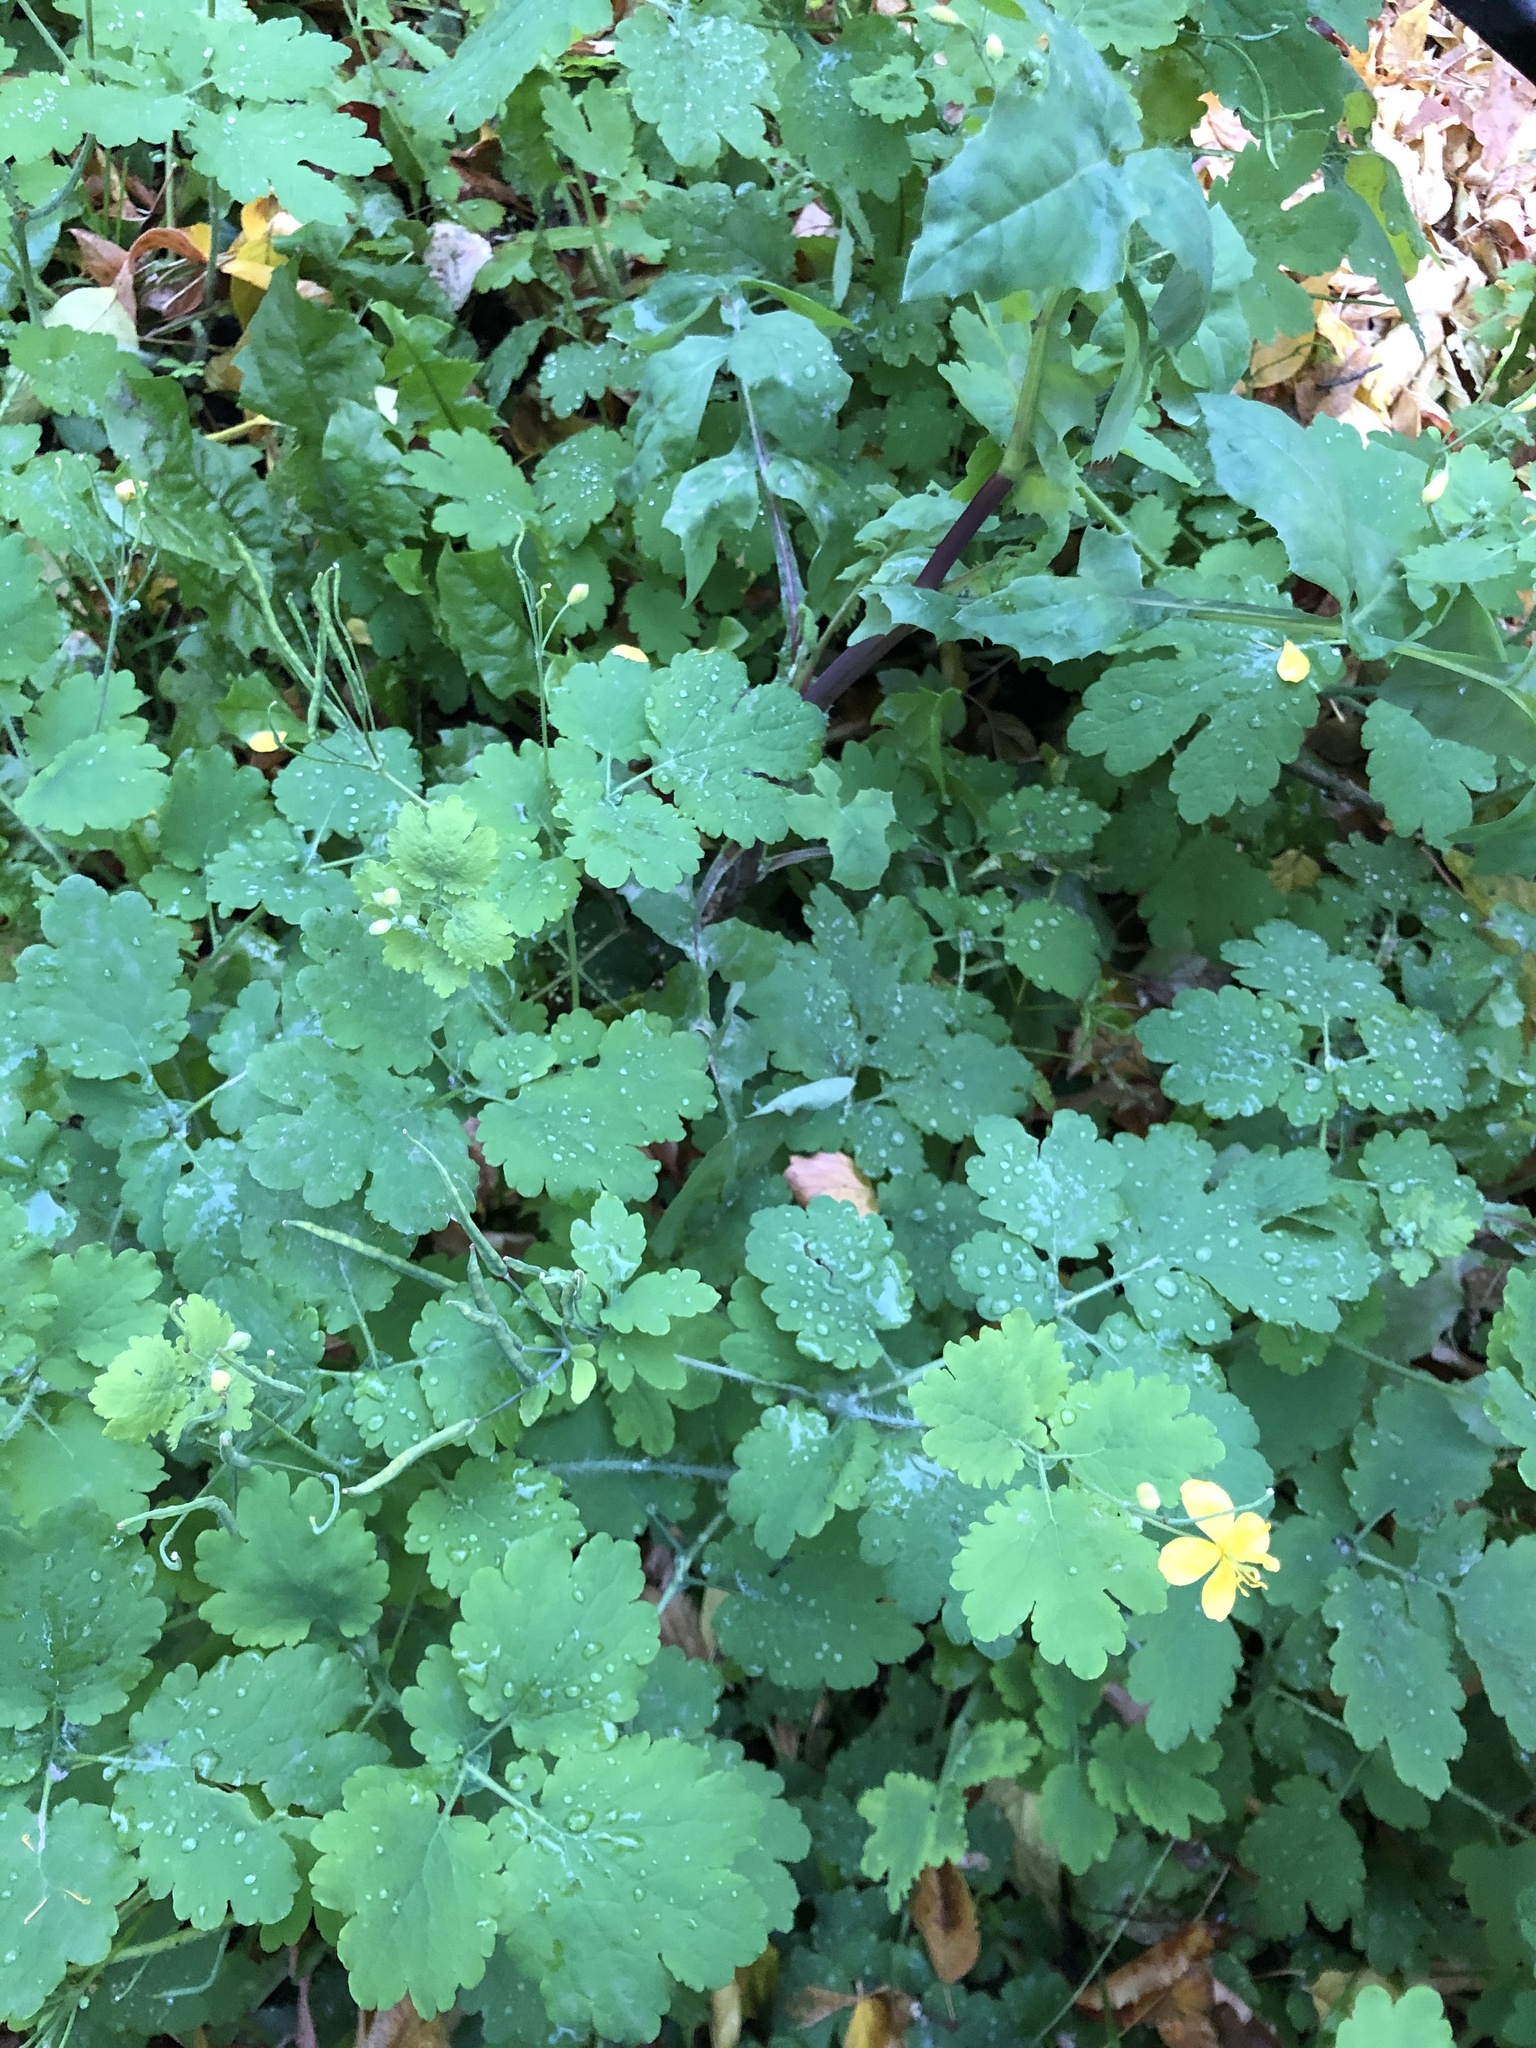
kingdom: Plantae
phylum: Tracheophyta
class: Magnoliopsida
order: Ranunculales
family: Papaveraceae
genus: Chelidonium
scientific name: Chelidonium majus
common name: Greater celandine
